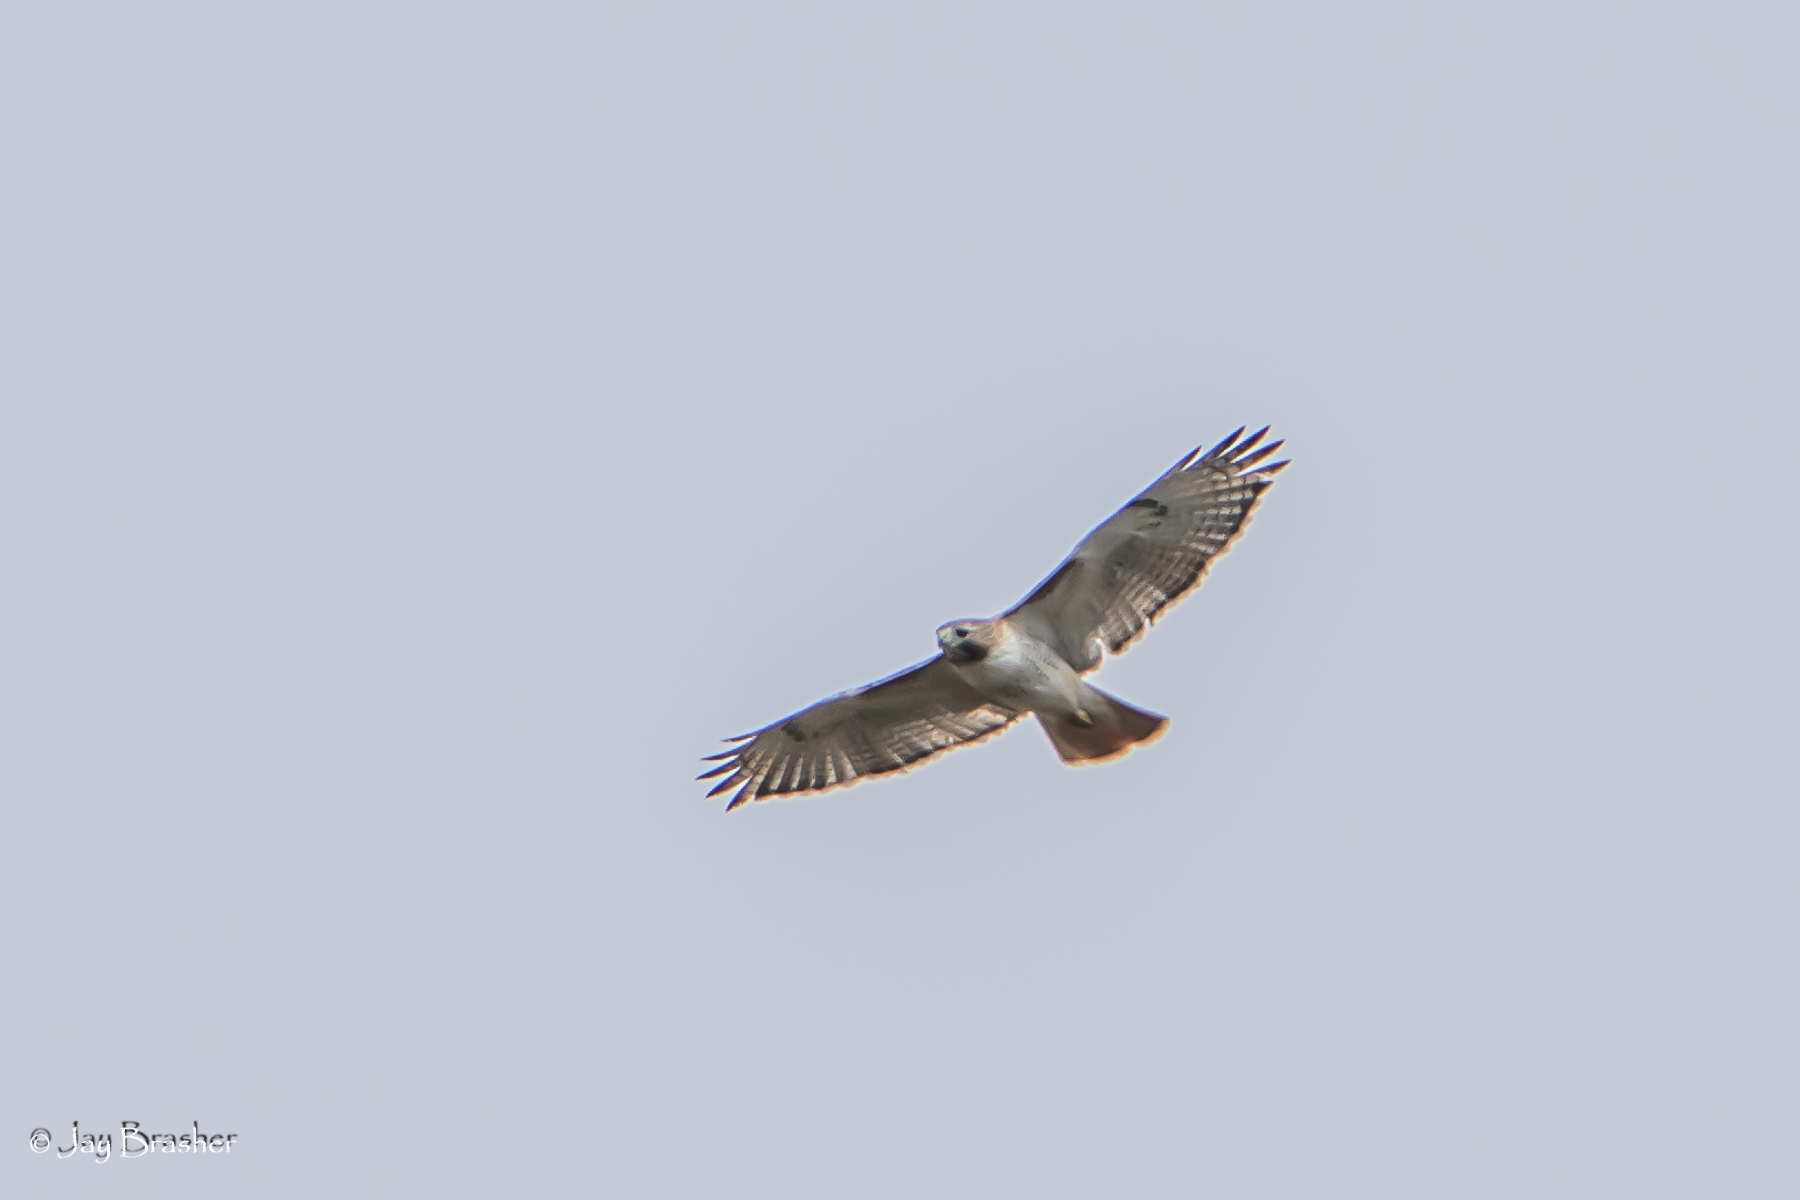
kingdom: Animalia
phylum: Chordata
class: Aves
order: Accipitriformes
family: Accipitridae
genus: Buteo
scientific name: Buteo jamaicensis
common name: Red-tailed hawk
